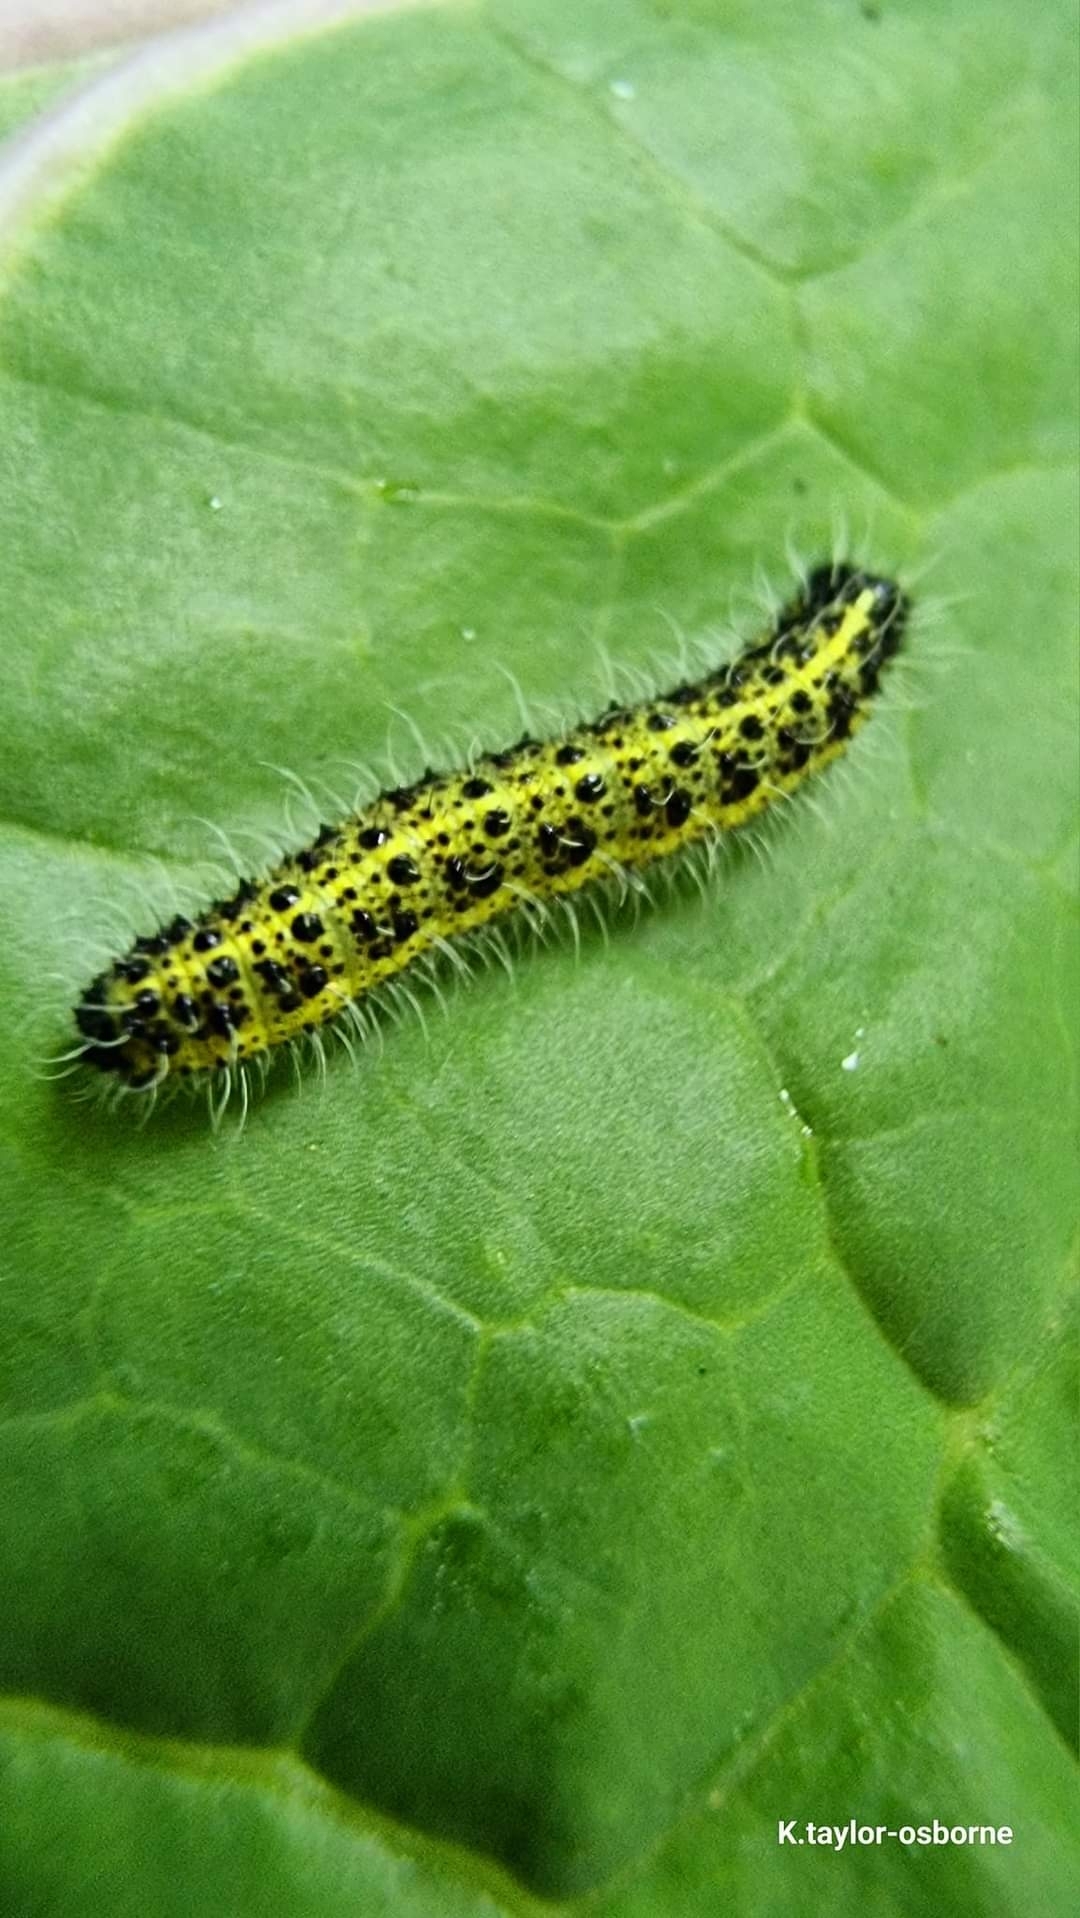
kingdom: Animalia
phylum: Arthropoda
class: Insecta
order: Lepidoptera
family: Pieridae
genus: Pieris
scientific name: Pieris brassicae
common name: Large white
